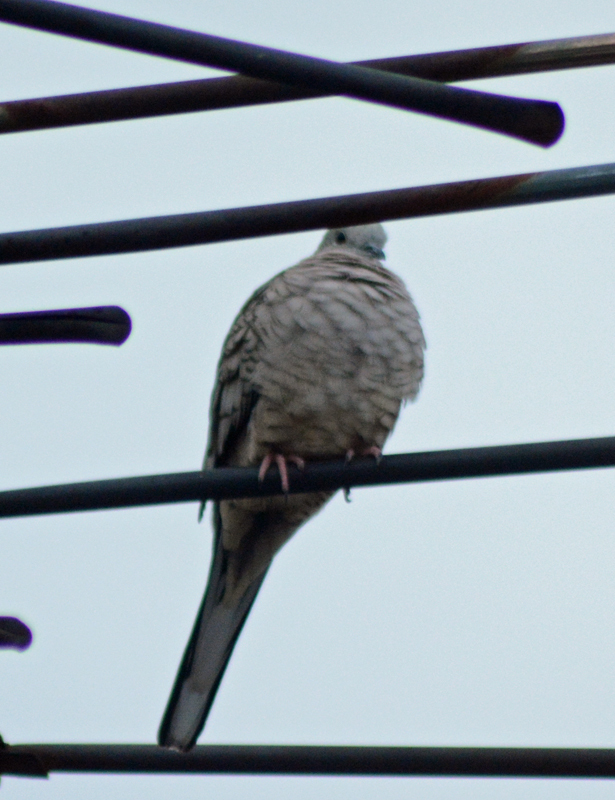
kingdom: Animalia
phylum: Chordata
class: Aves
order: Columbiformes
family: Columbidae
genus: Columbina
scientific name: Columbina inca
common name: Inca dove
